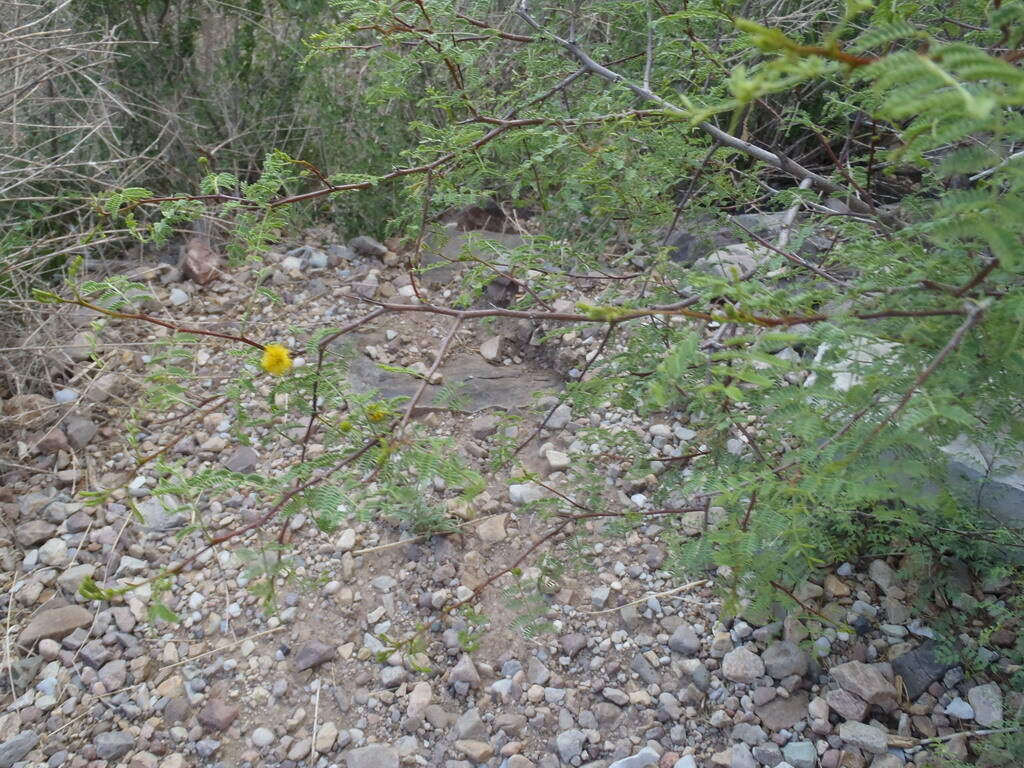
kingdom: Plantae
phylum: Tracheophyta
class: Magnoliopsida
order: Fabales
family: Fabaceae
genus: Vachellia
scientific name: Vachellia constricta
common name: Mescat acacia
